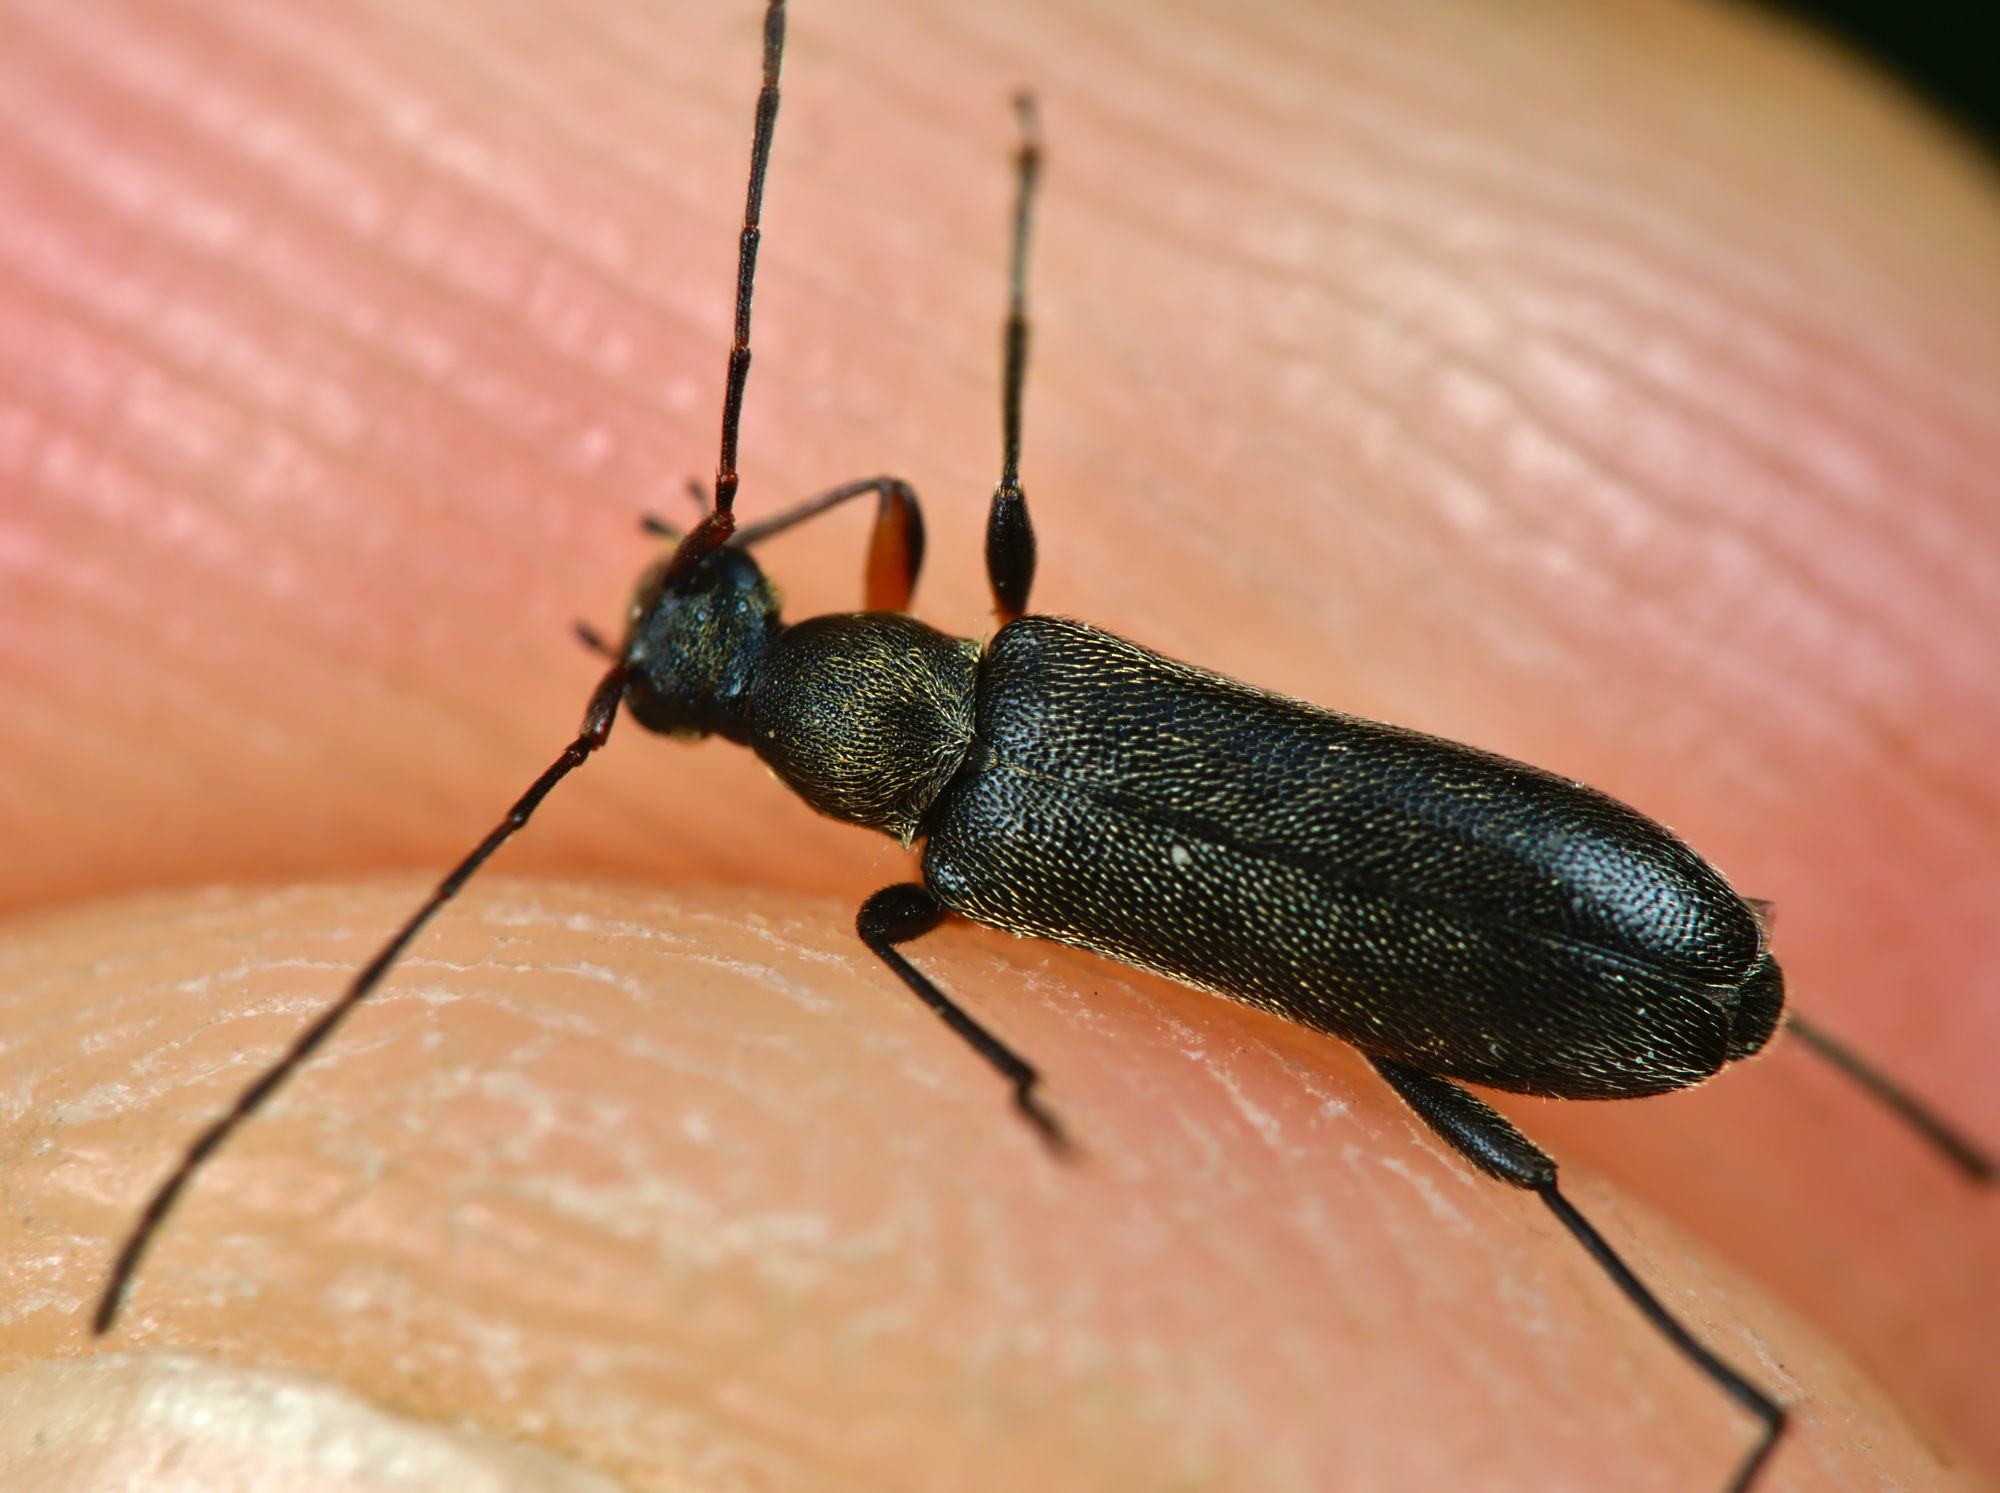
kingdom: Animalia
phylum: Arthropoda
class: Insecta
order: Coleoptera
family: Cerambycidae
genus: Grammoptera
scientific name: Grammoptera ruficornis
